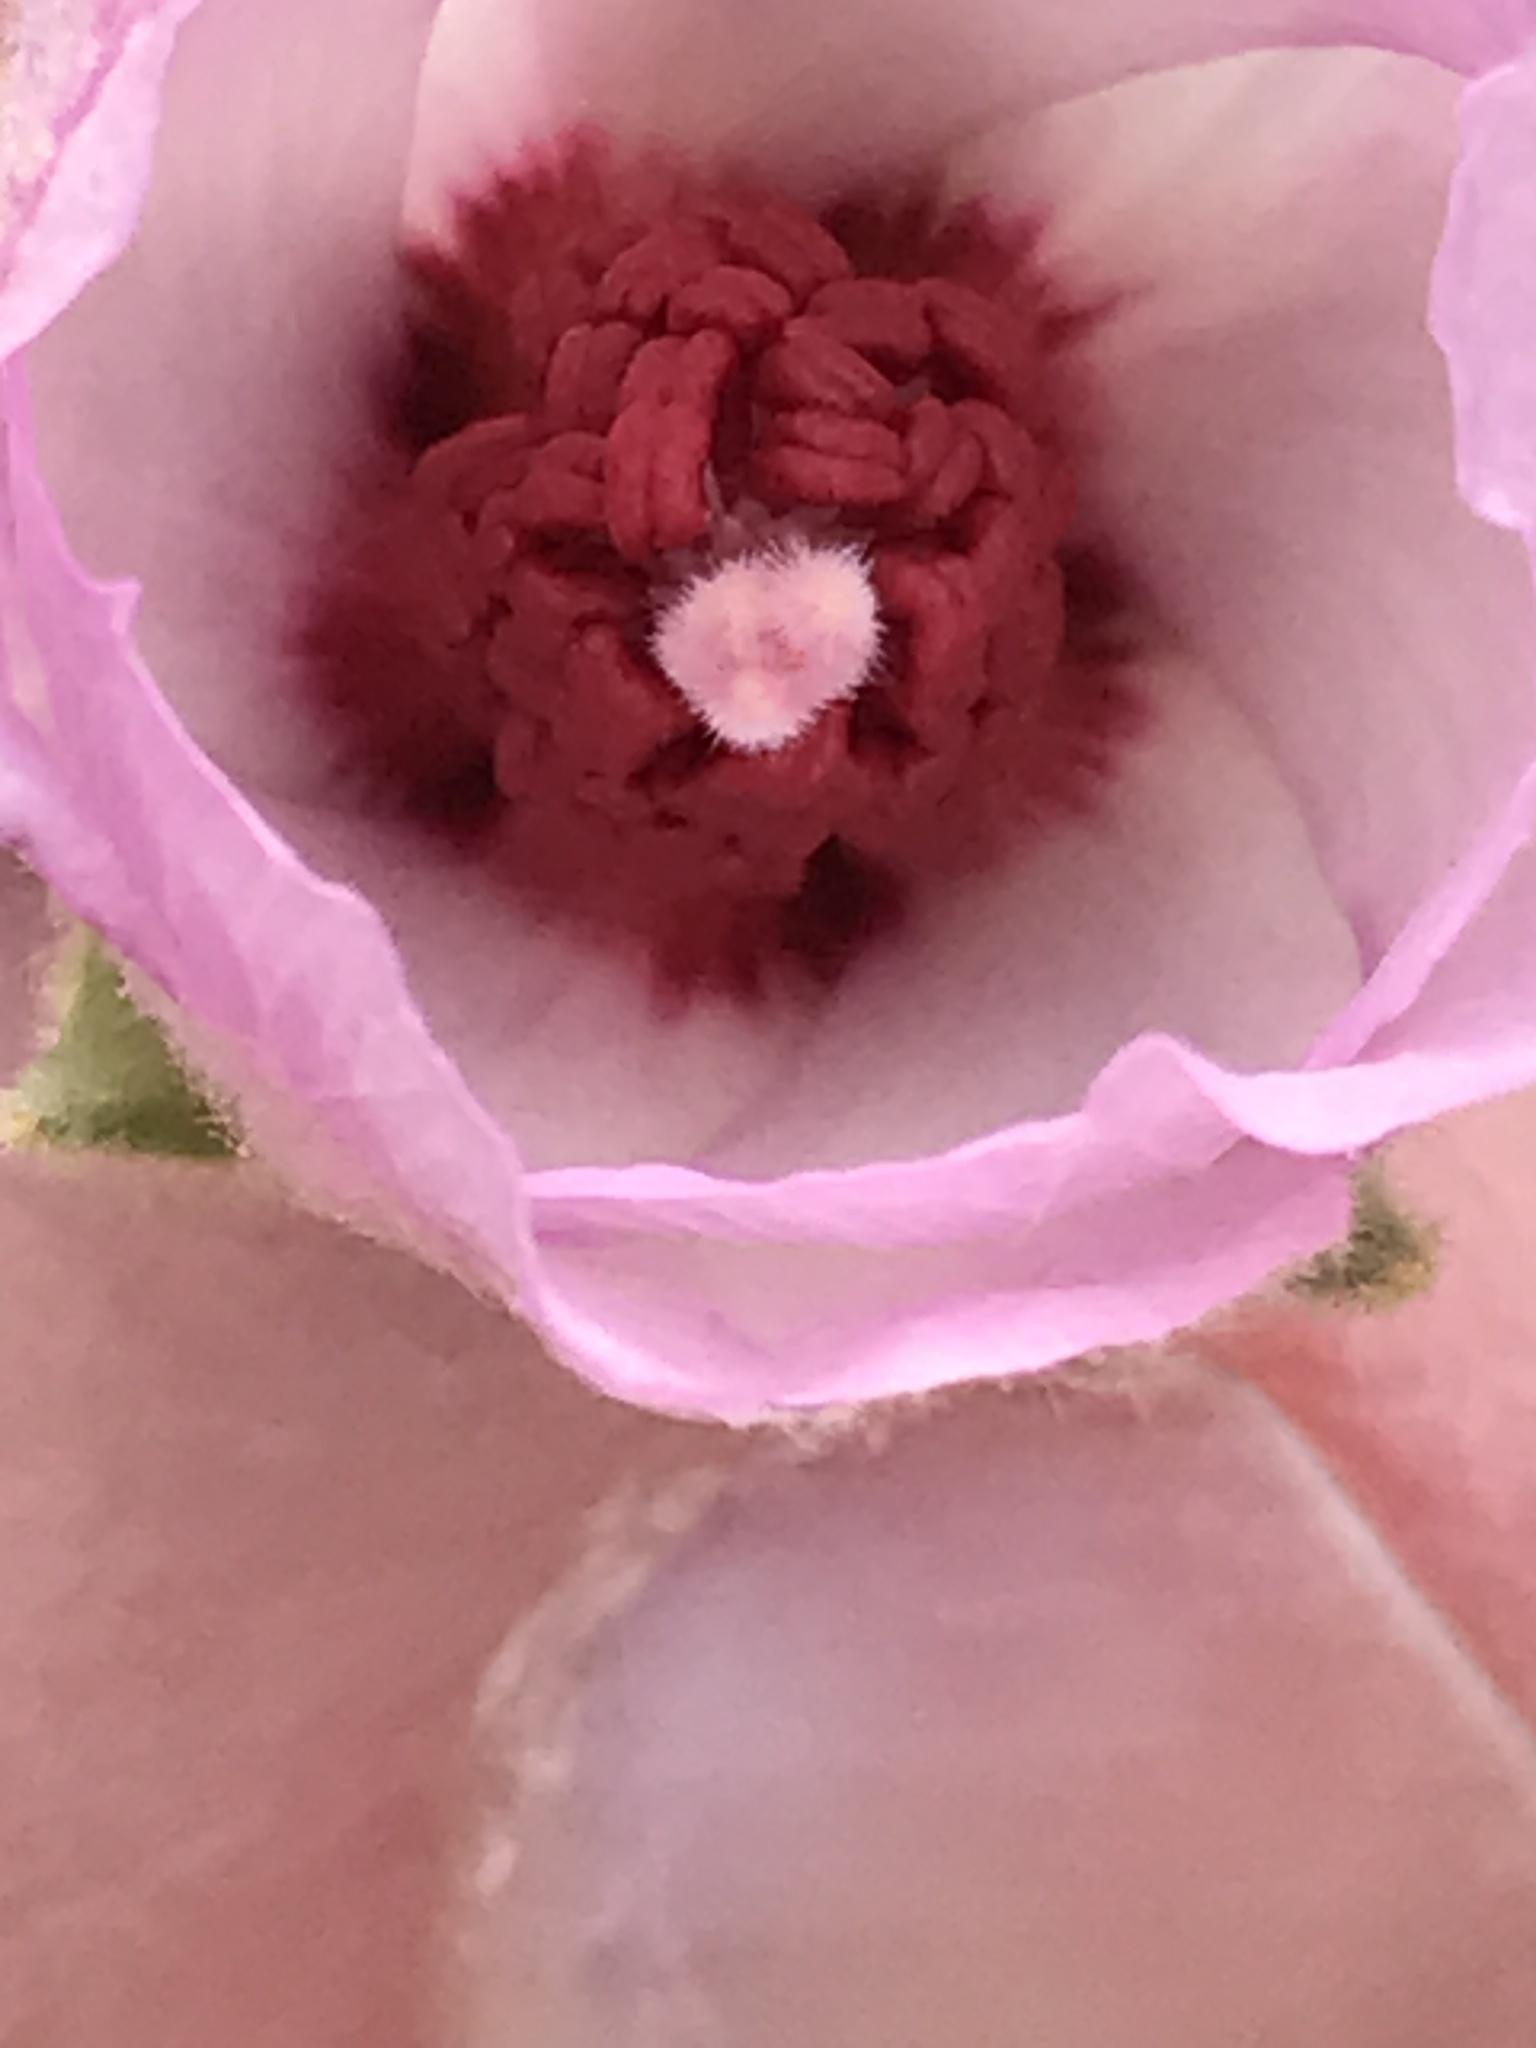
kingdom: Plantae
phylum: Tracheophyta
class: Magnoliopsida
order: Malvales
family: Malvaceae
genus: Hibiscus
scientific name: Hibiscus denudatus
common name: Paleface
